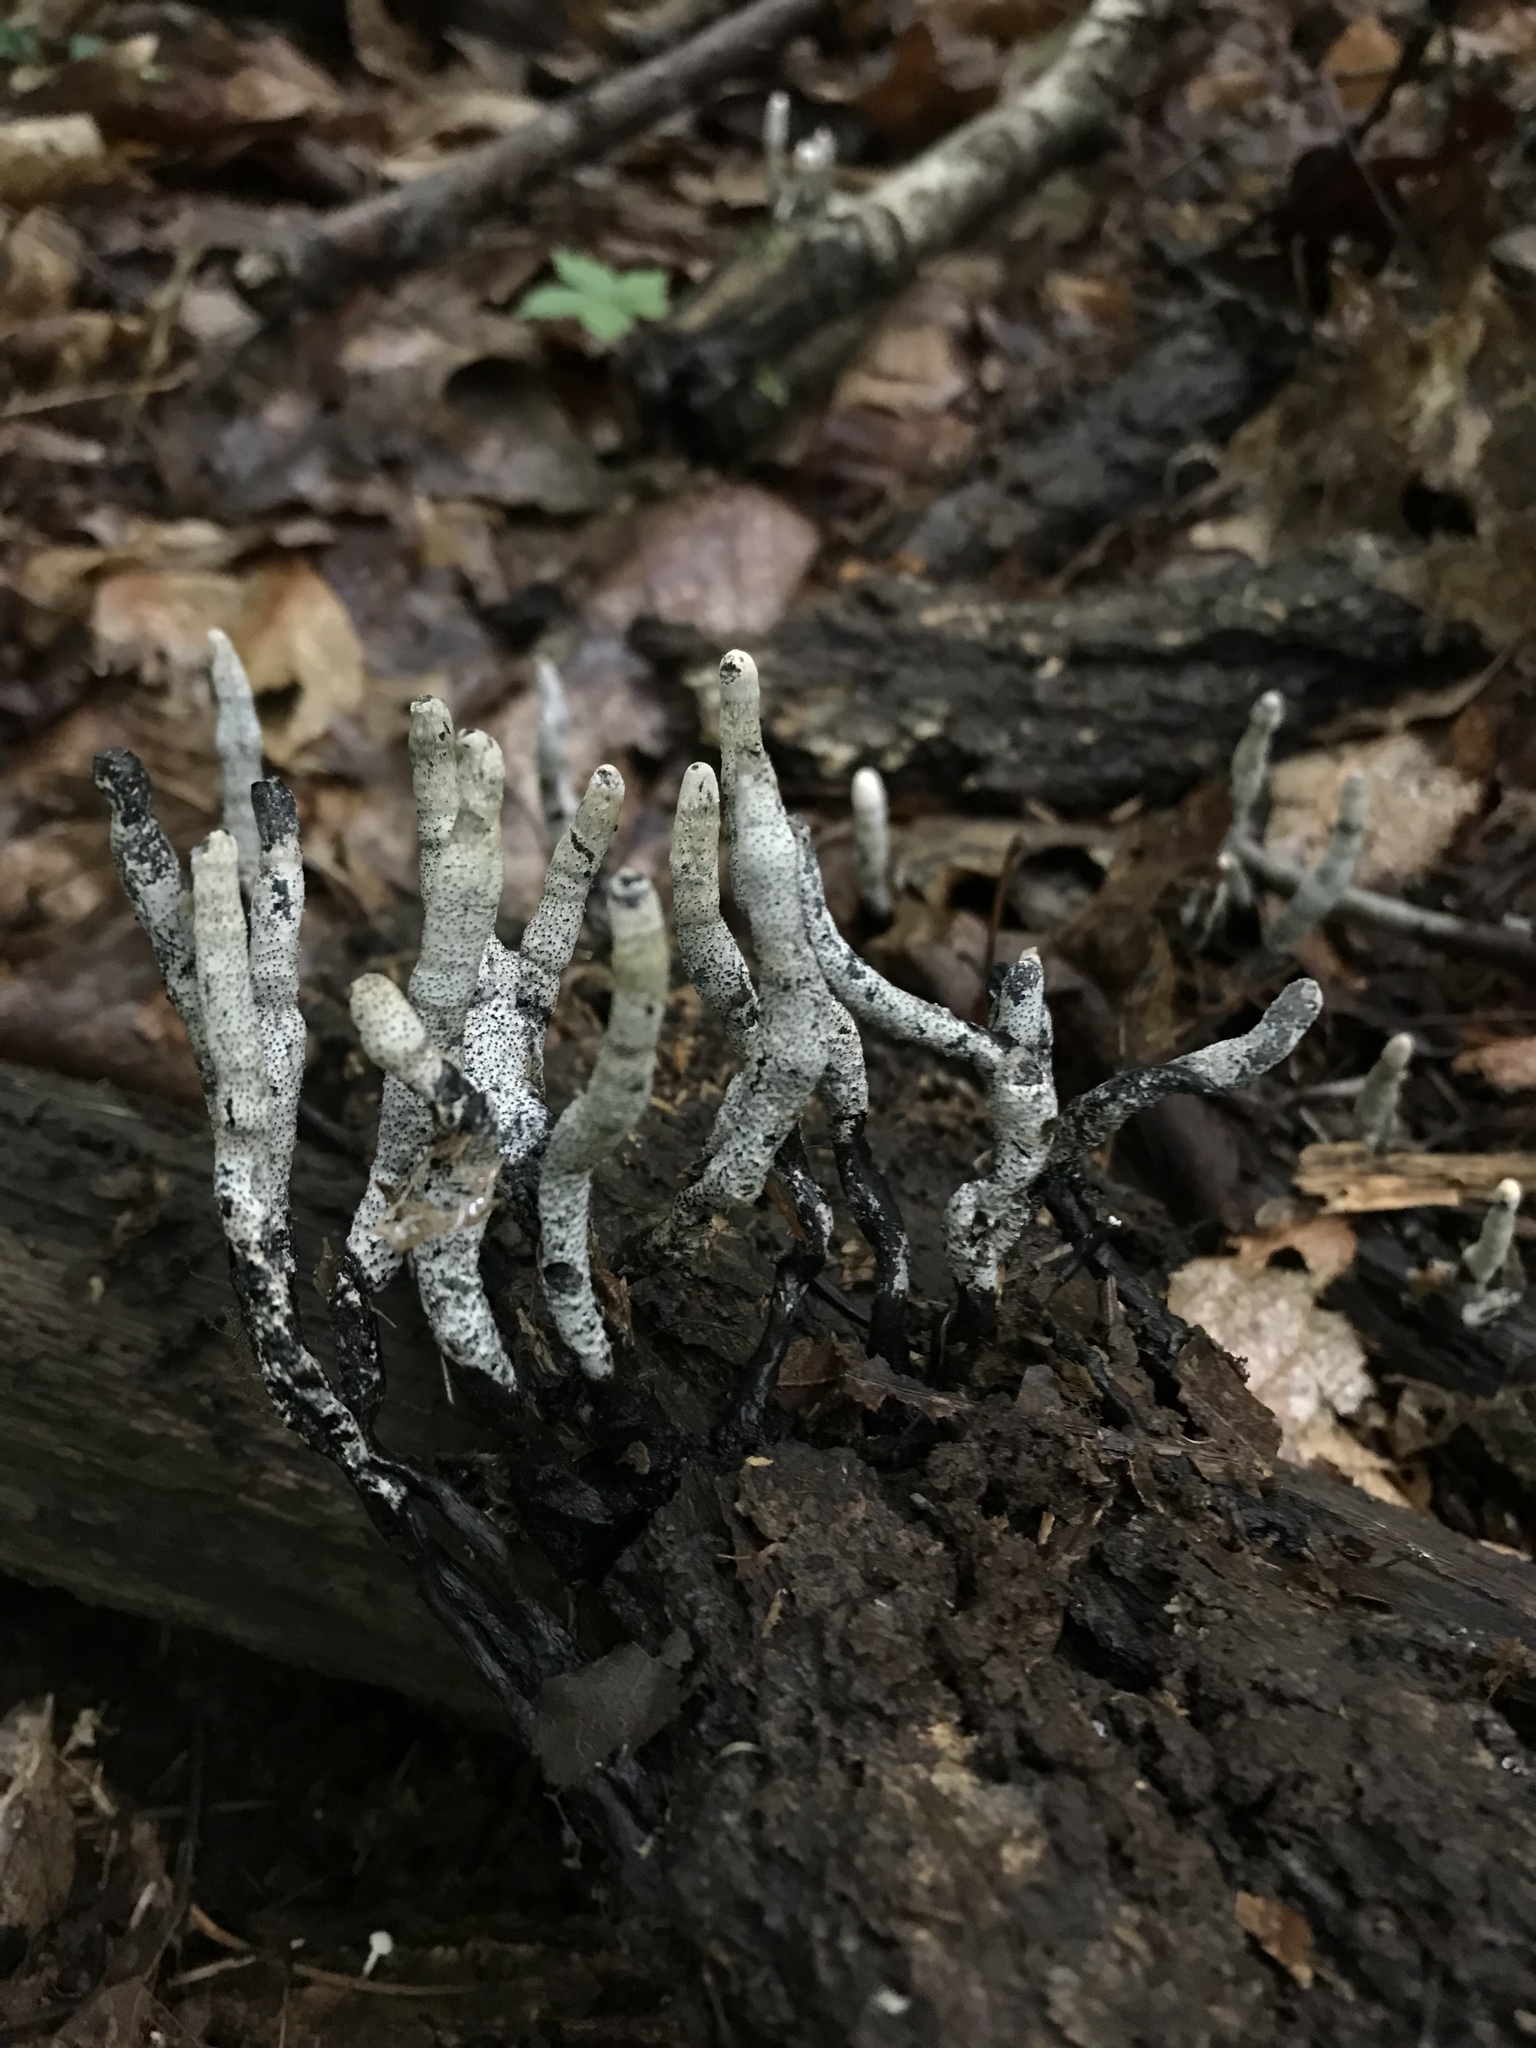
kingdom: Fungi
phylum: Ascomycota
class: Sordariomycetes
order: Xylariales
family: Xylariaceae
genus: Xylaria
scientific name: Xylaria hypoxylon
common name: Candle-snuff fungus
